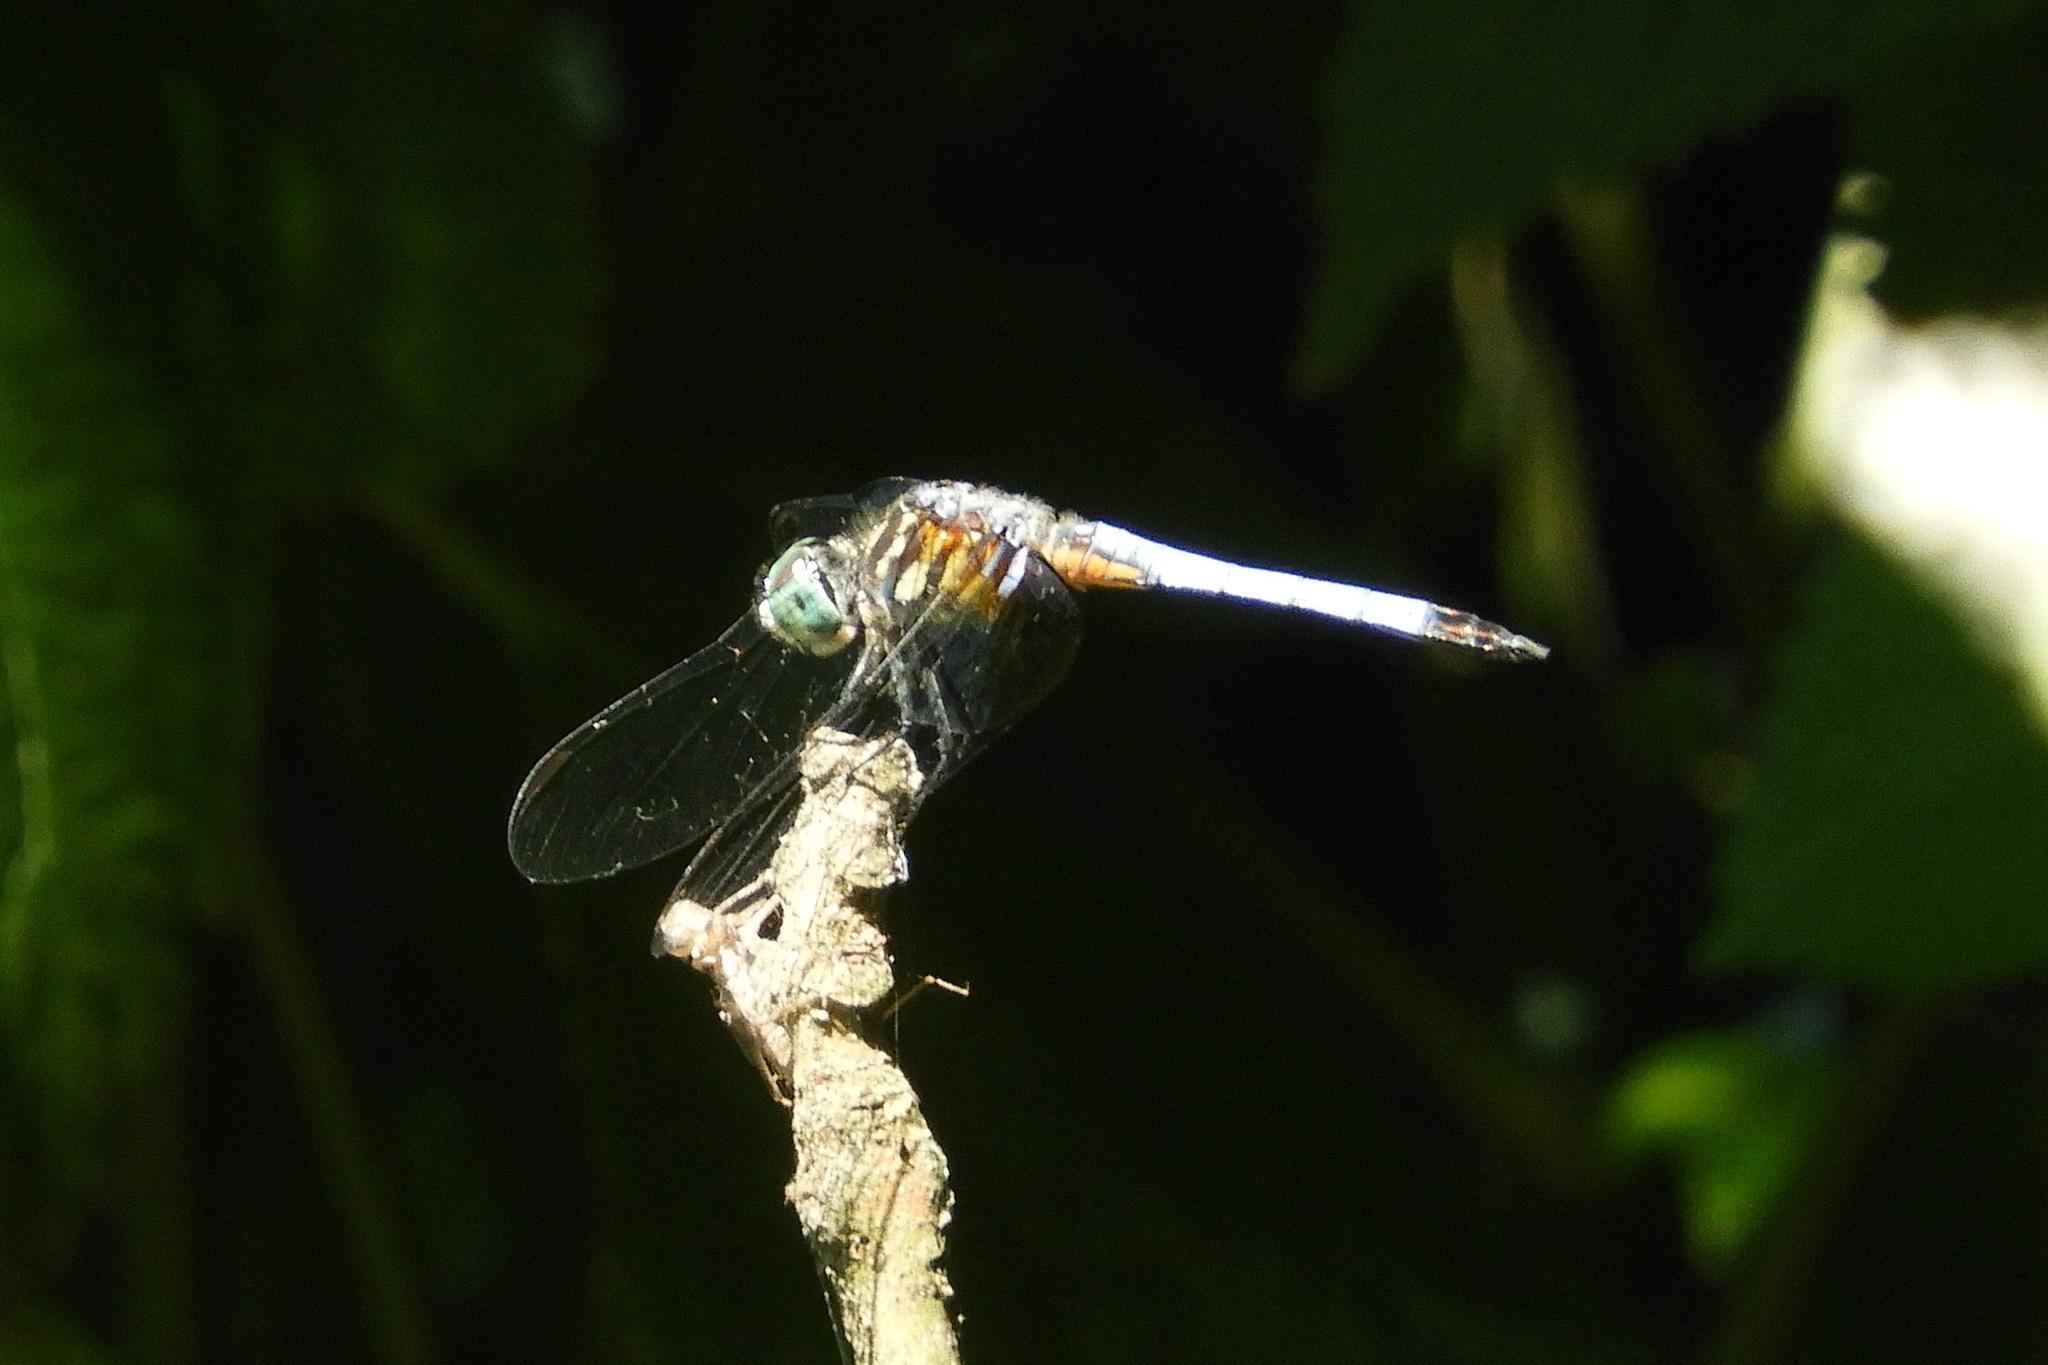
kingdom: Animalia
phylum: Arthropoda
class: Insecta
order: Odonata
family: Libellulidae
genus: Pachydiplax
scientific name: Pachydiplax longipennis
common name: Blue dasher
